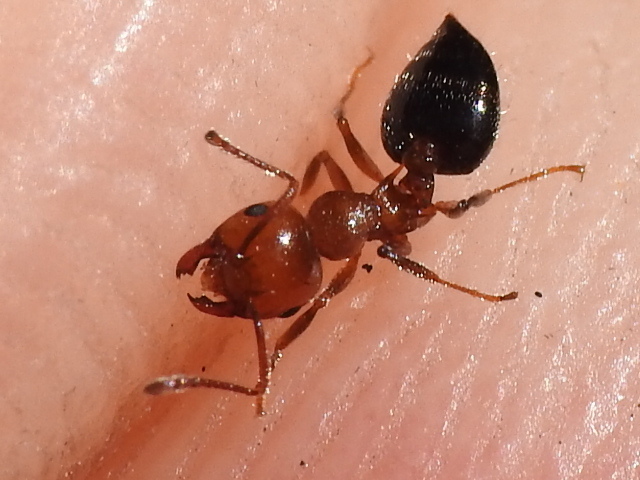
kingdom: Animalia
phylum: Arthropoda
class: Insecta
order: Hymenoptera
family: Formicidae
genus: Crematogaster
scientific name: Crematogaster laeviuscula
